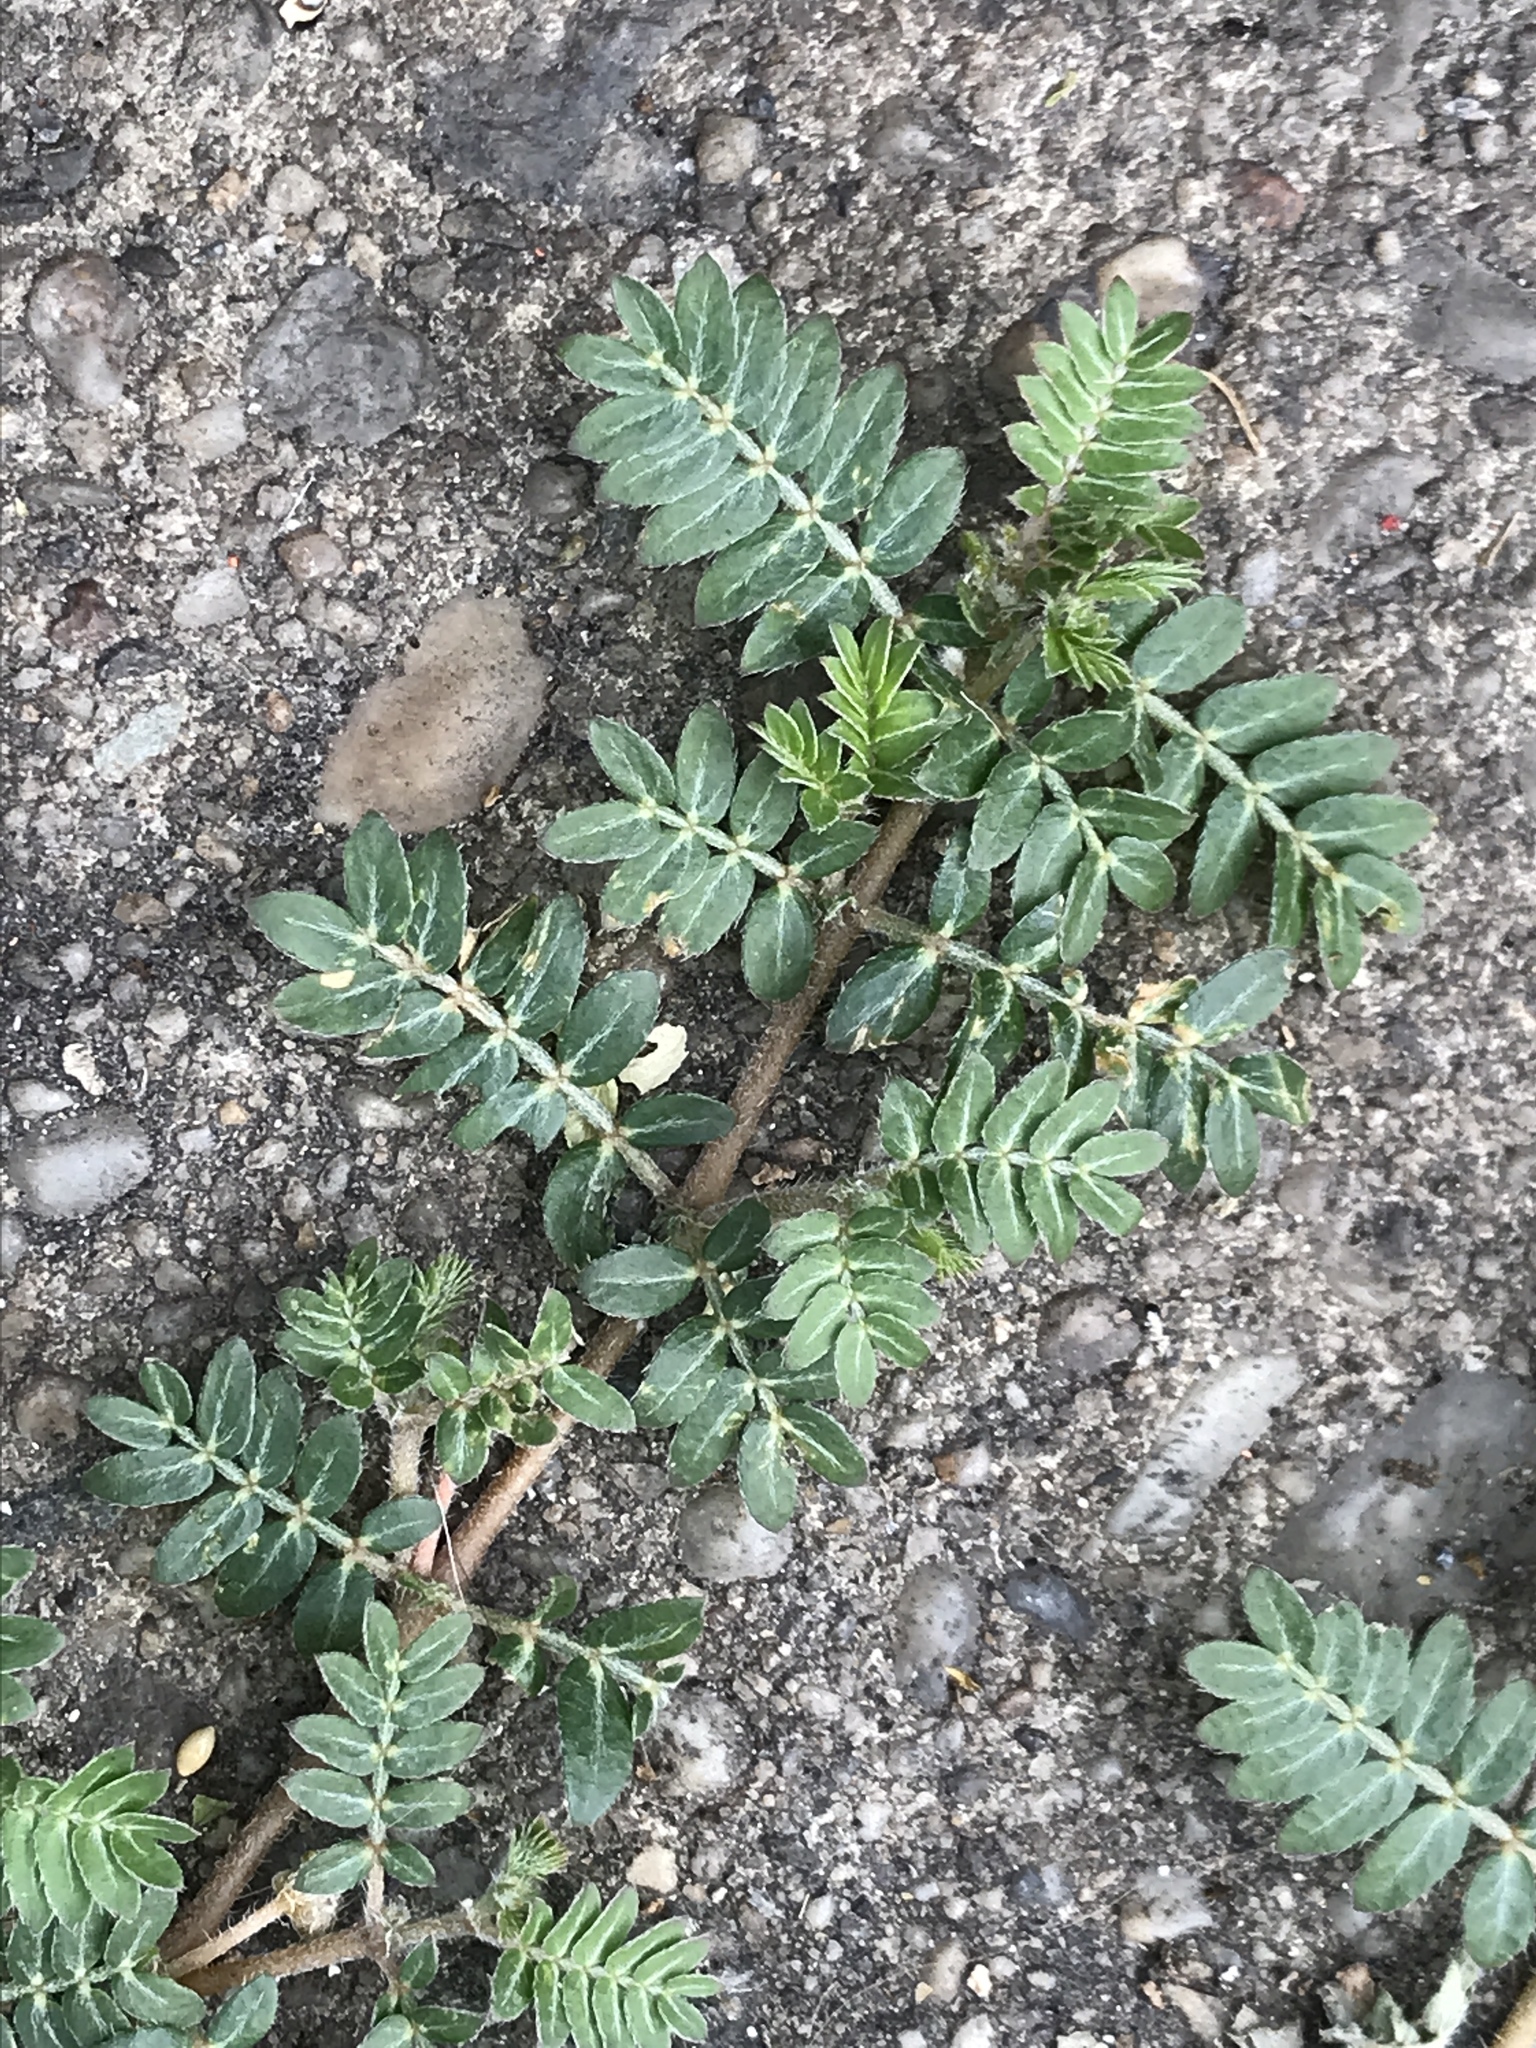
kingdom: Plantae
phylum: Tracheophyta
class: Magnoliopsida
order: Zygophyllales
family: Zygophyllaceae
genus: Tribulus
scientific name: Tribulus terrestris
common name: Puncturevine
